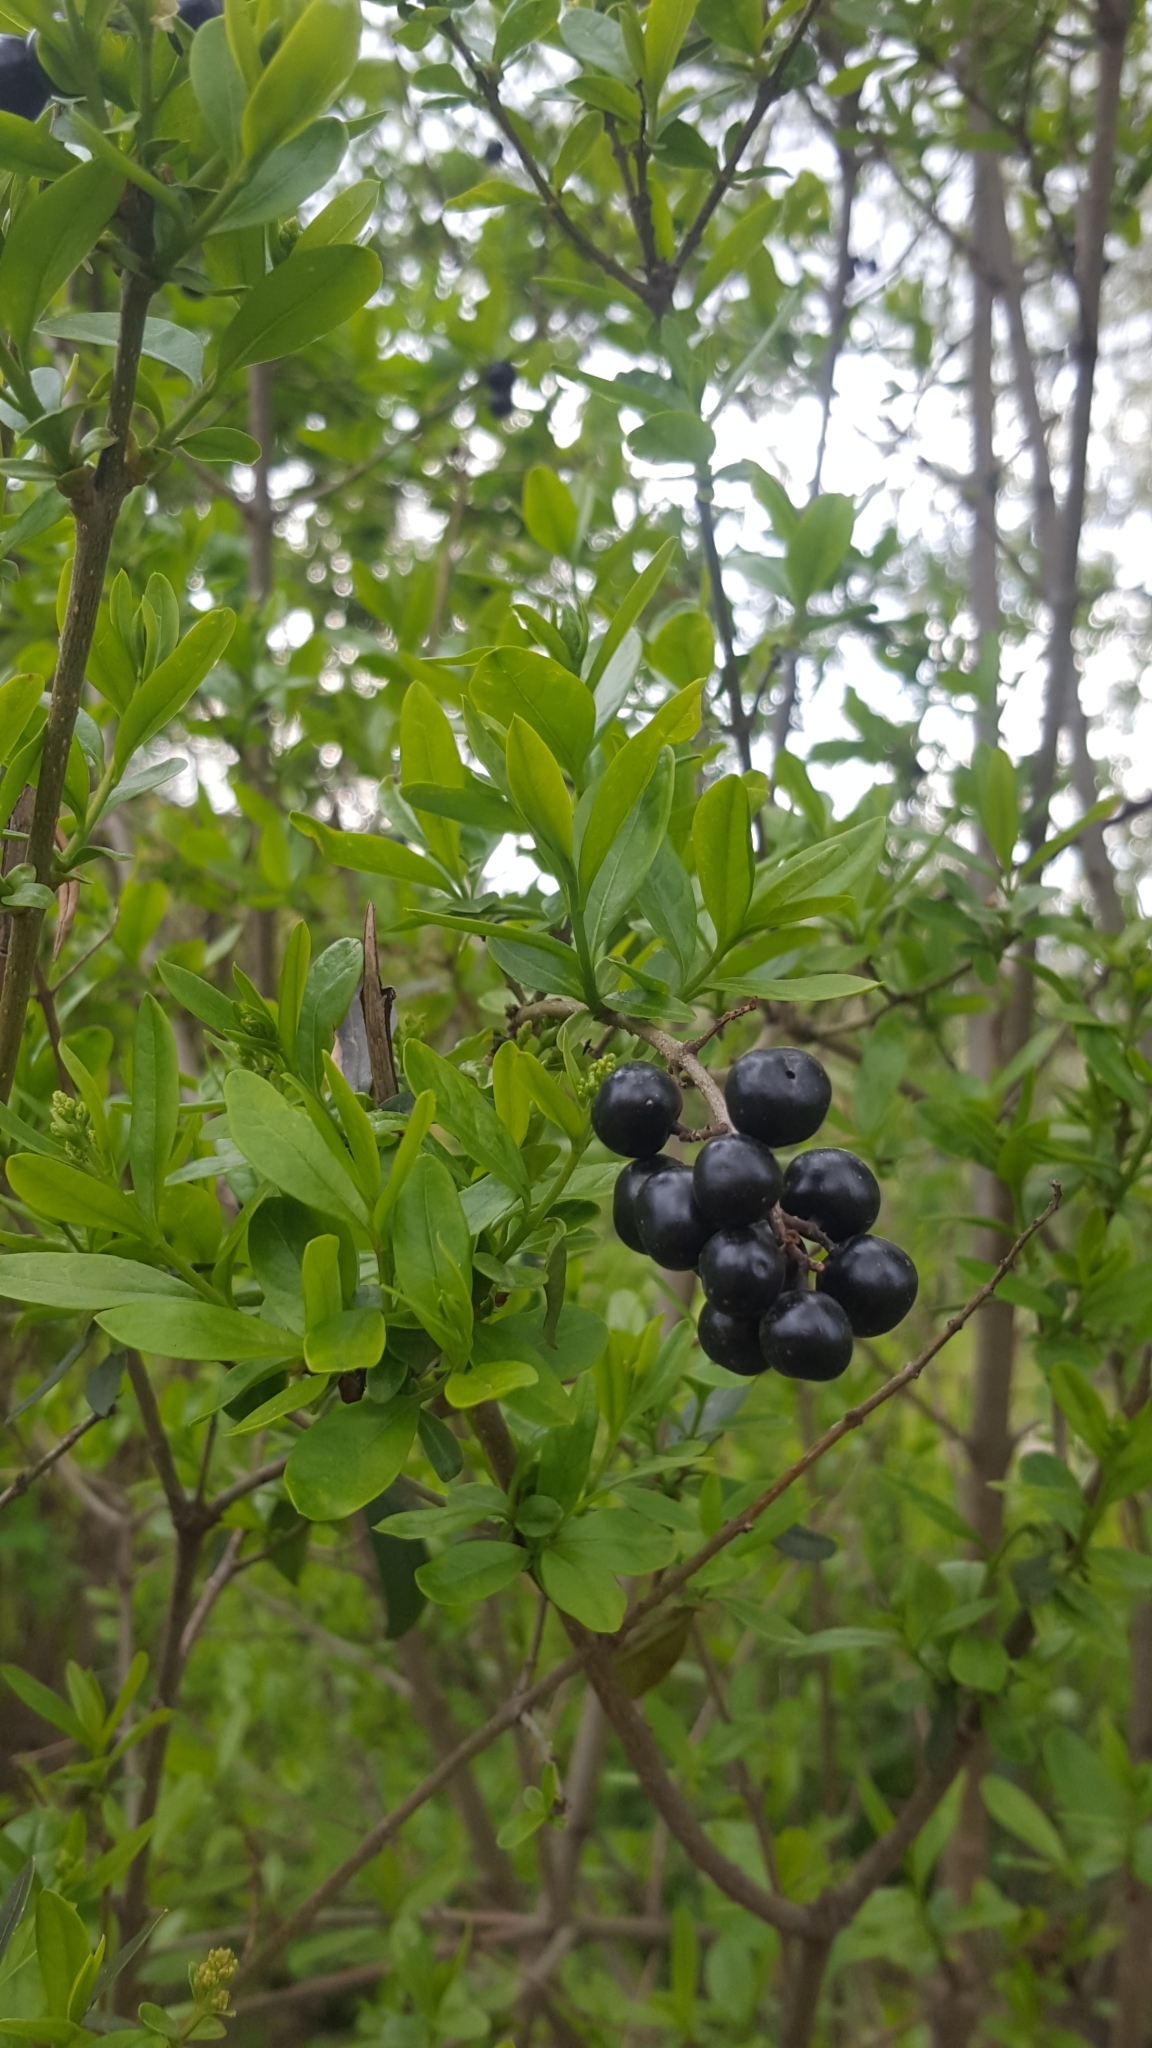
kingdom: Plantae
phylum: Tracheophyta
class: Magnoliopsida
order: Lamiales
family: Oleaceae
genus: Ligustrum
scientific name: Ligustrum vulgare
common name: Wild privet
